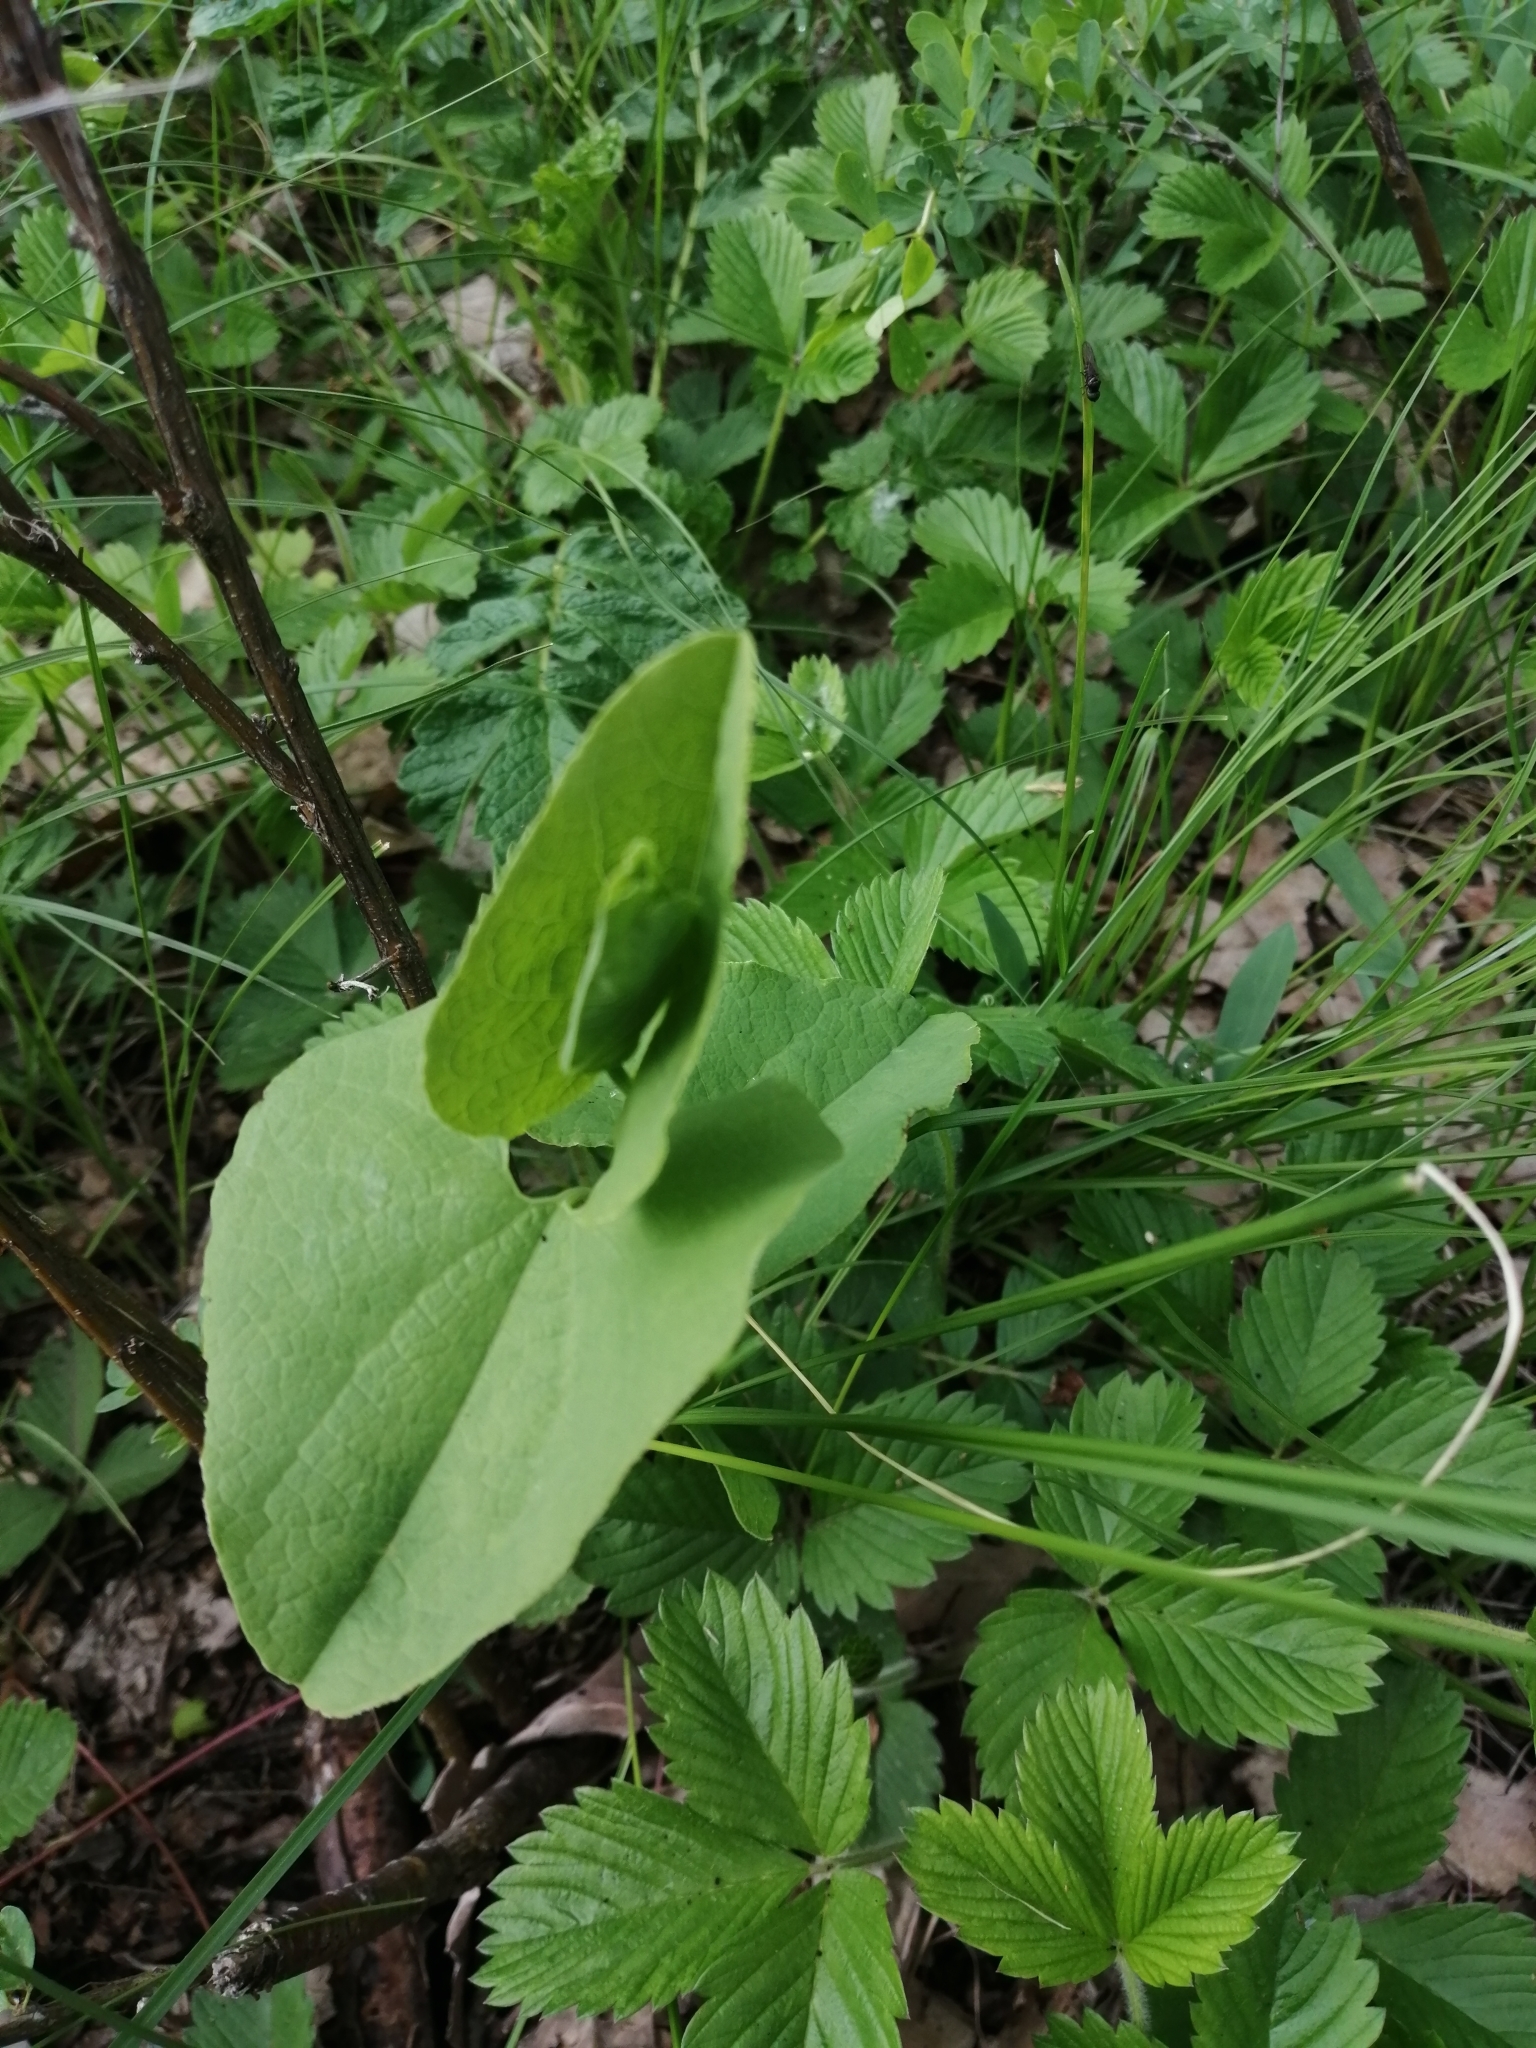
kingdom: Plantae
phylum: Tracheophyta
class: Magnoliopsida
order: Piperales
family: Aristolochiaceae
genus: Aristolochia
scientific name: Aristolochia clematitis
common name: Birthwort
